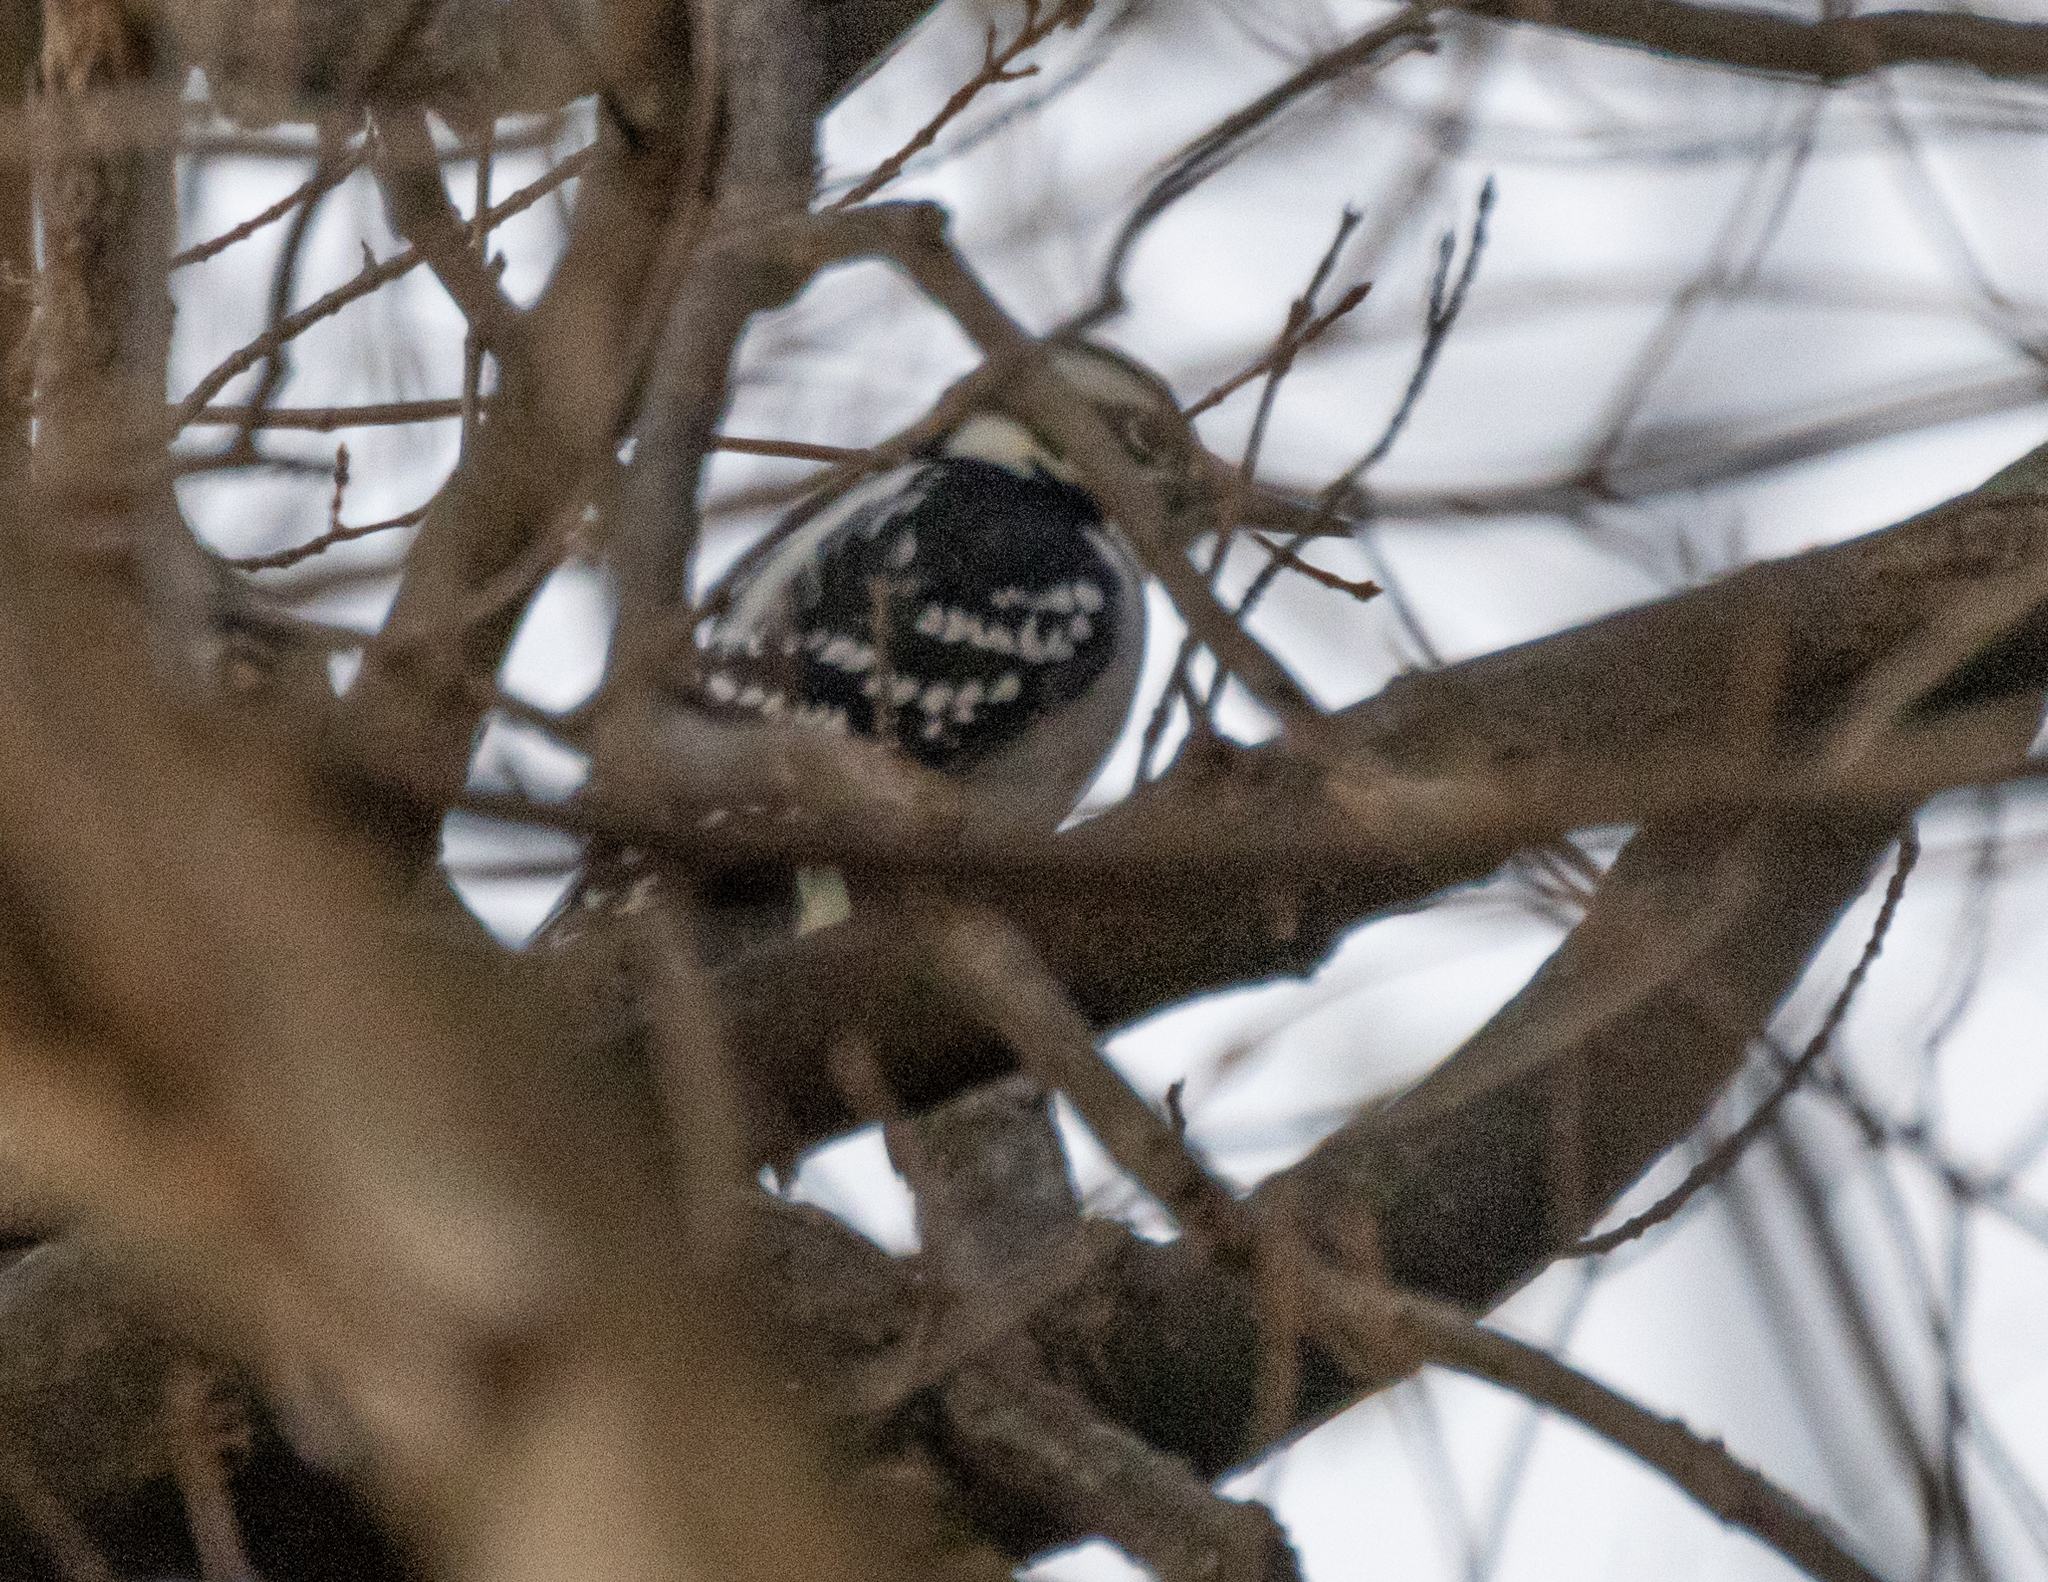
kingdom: Animalia
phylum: Chordata
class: Aves
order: Piciformes
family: Picidae
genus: Leuconotopicus
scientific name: Leuconotopicus villosus
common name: Hairy woodpecker
